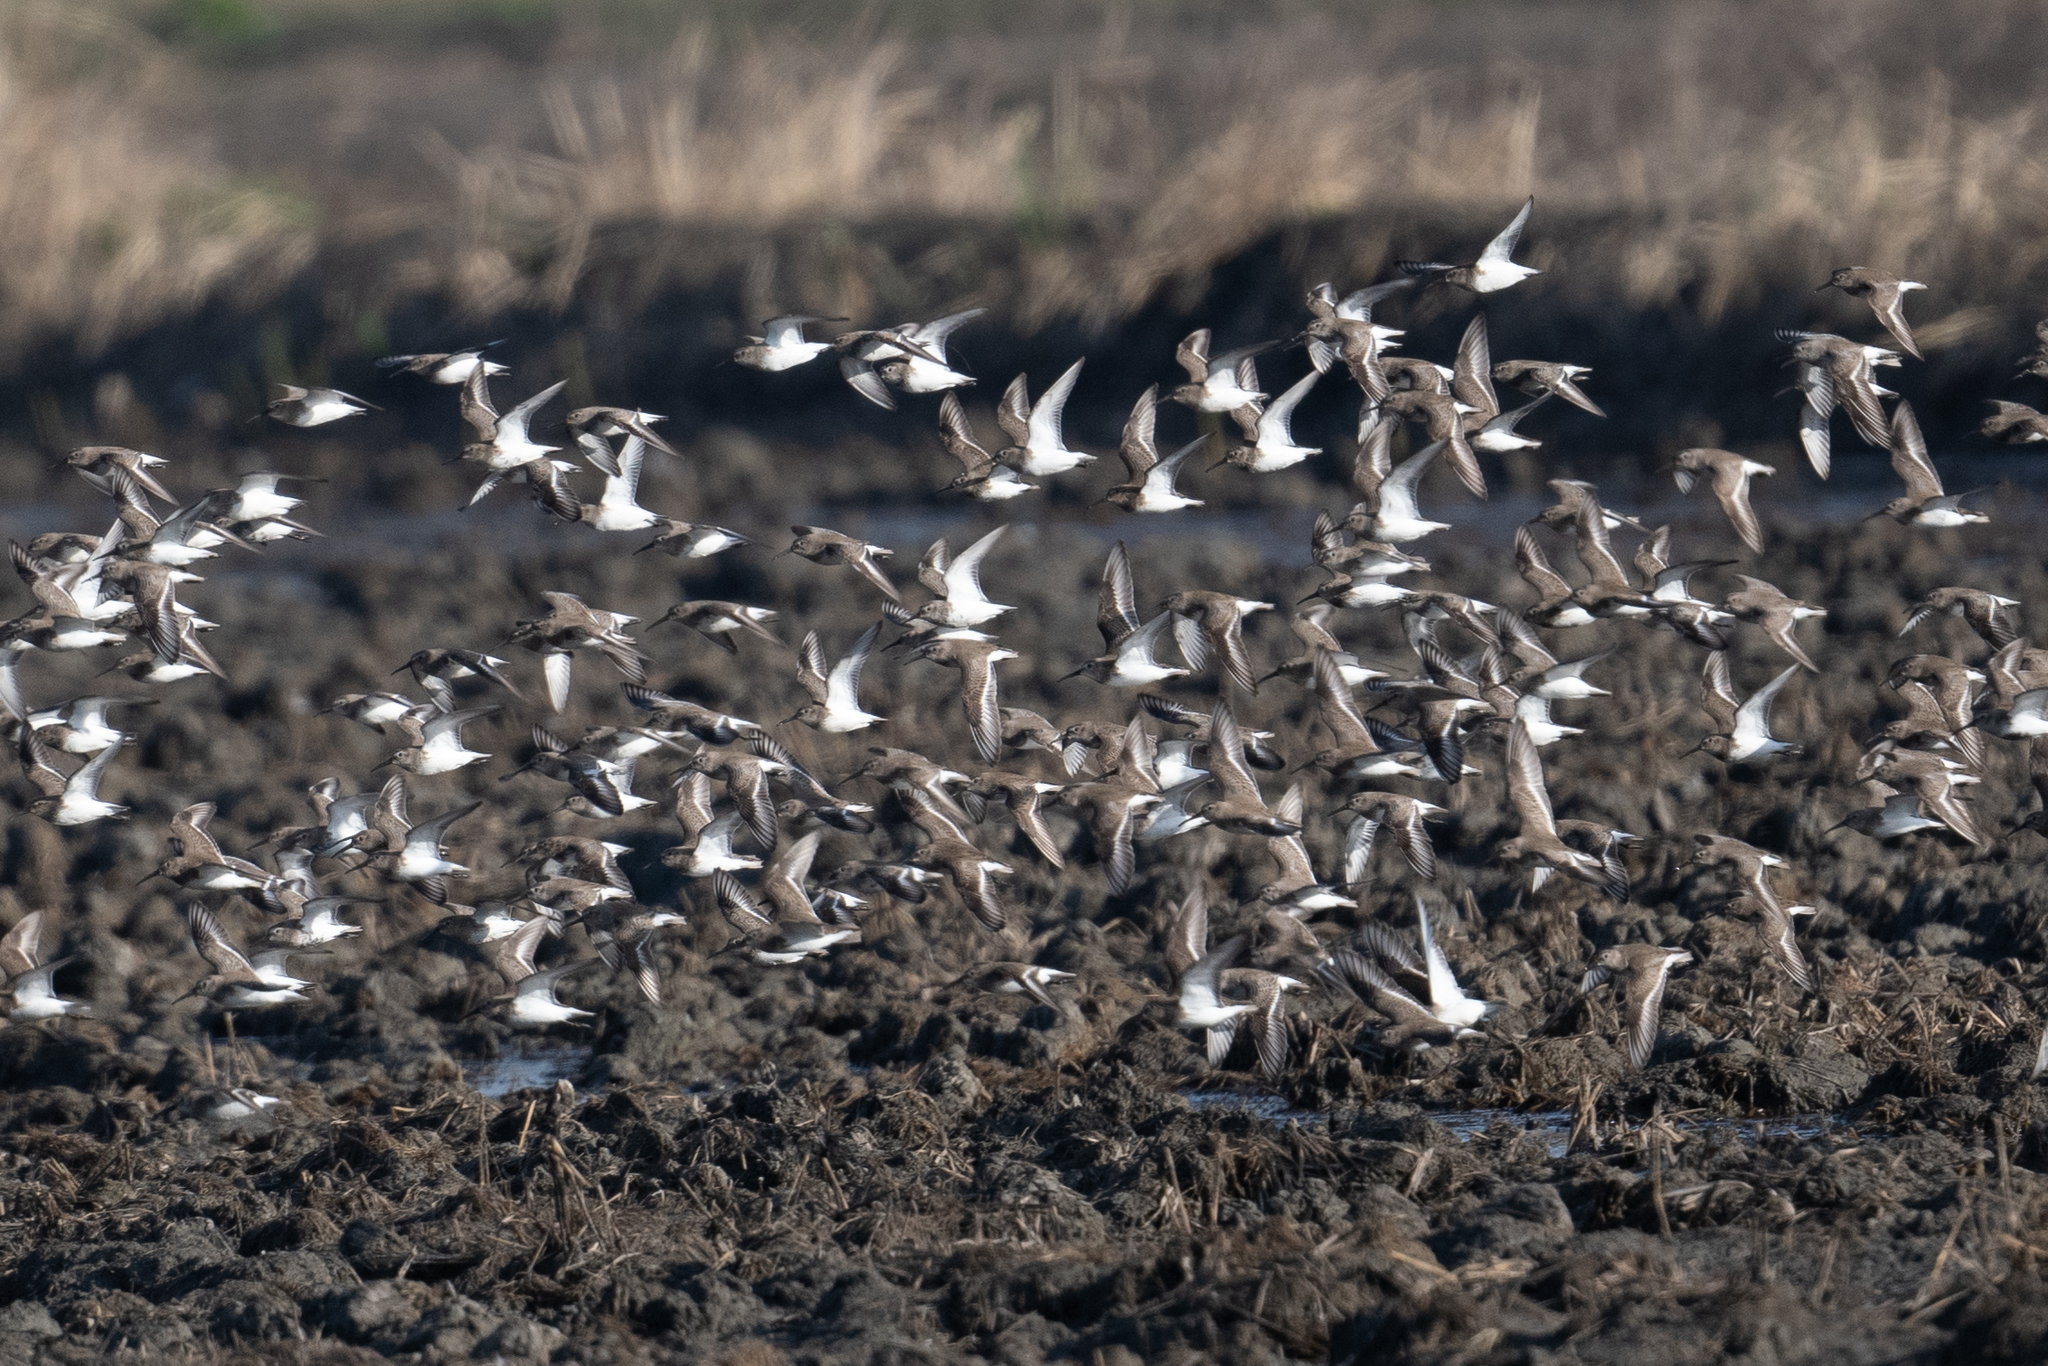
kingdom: Animalia
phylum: Chordata
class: Aves
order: Charadriiformes
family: Scolopacidae
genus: Calidris
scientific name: Calidris alpina
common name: Dunlin
